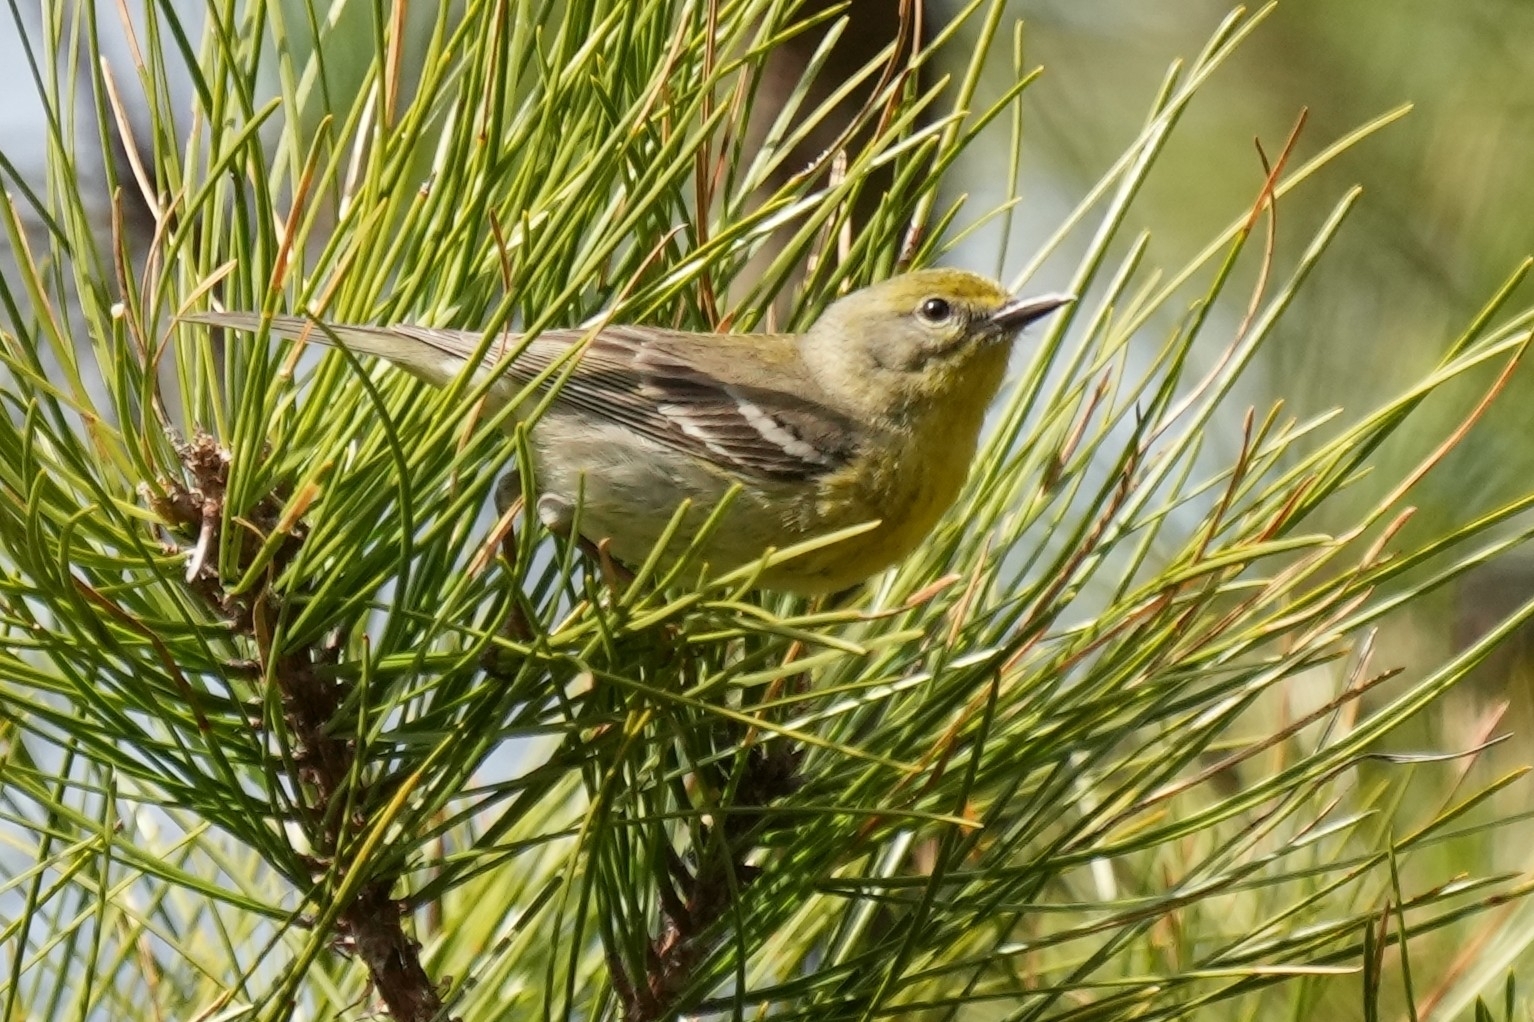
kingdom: Animalia
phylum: Chordata
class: Aves
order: Passeriformes
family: Parulidae
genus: Setophaga
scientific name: Setophaga pinus
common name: Pine warbler
